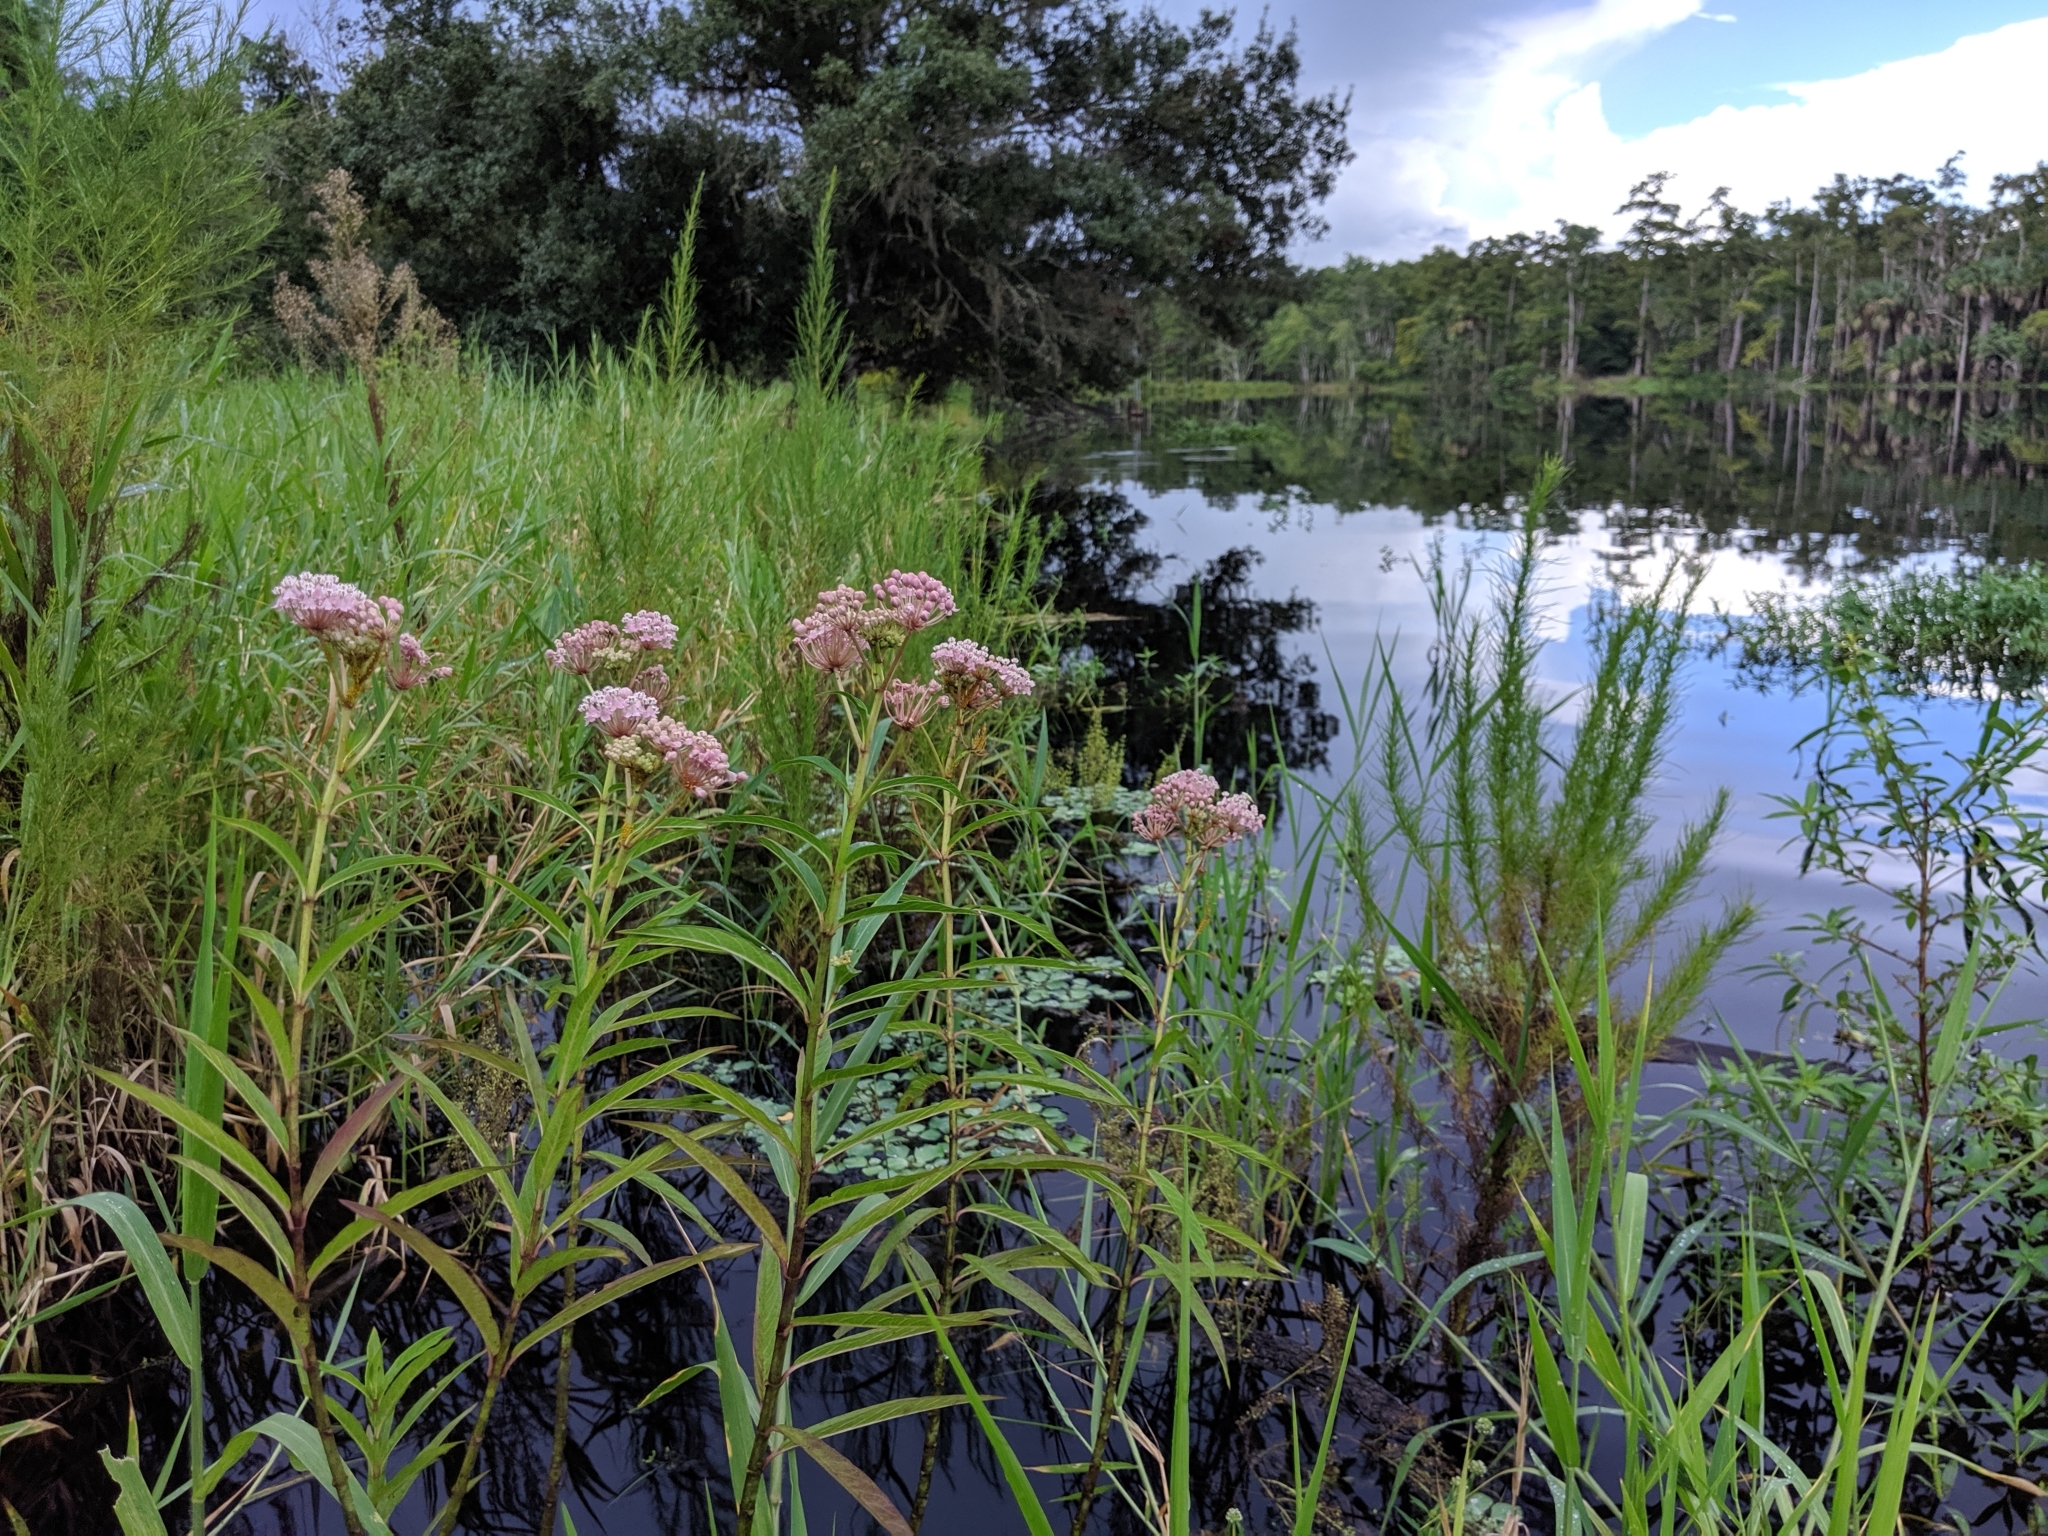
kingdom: Plantae
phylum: Tracheophyta
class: Magnoliopsida
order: Gentianales
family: Apocynaceae
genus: Asclepias
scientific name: Asclepias incarnata
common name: Swamp milkweed
